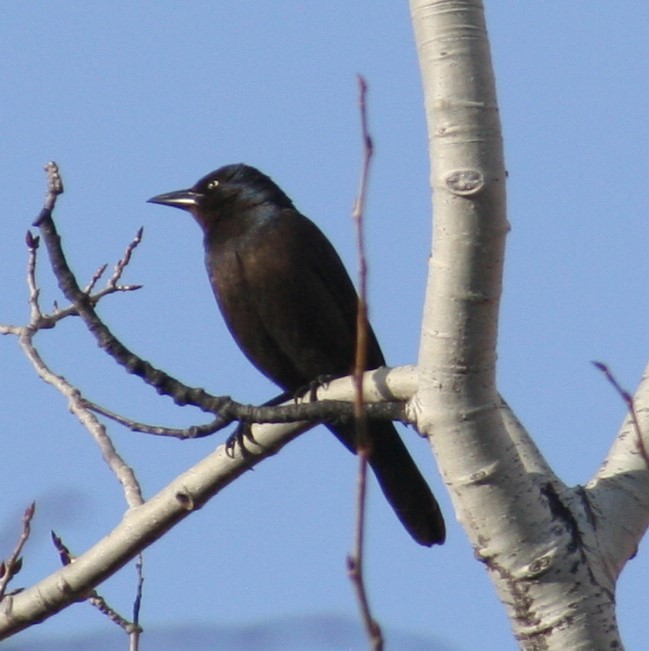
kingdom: Animalia
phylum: Chordata
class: Aves
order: Passeriformes
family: Icteridae
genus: Quiscalus
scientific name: Quiscalus quiscula
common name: Common grackle
